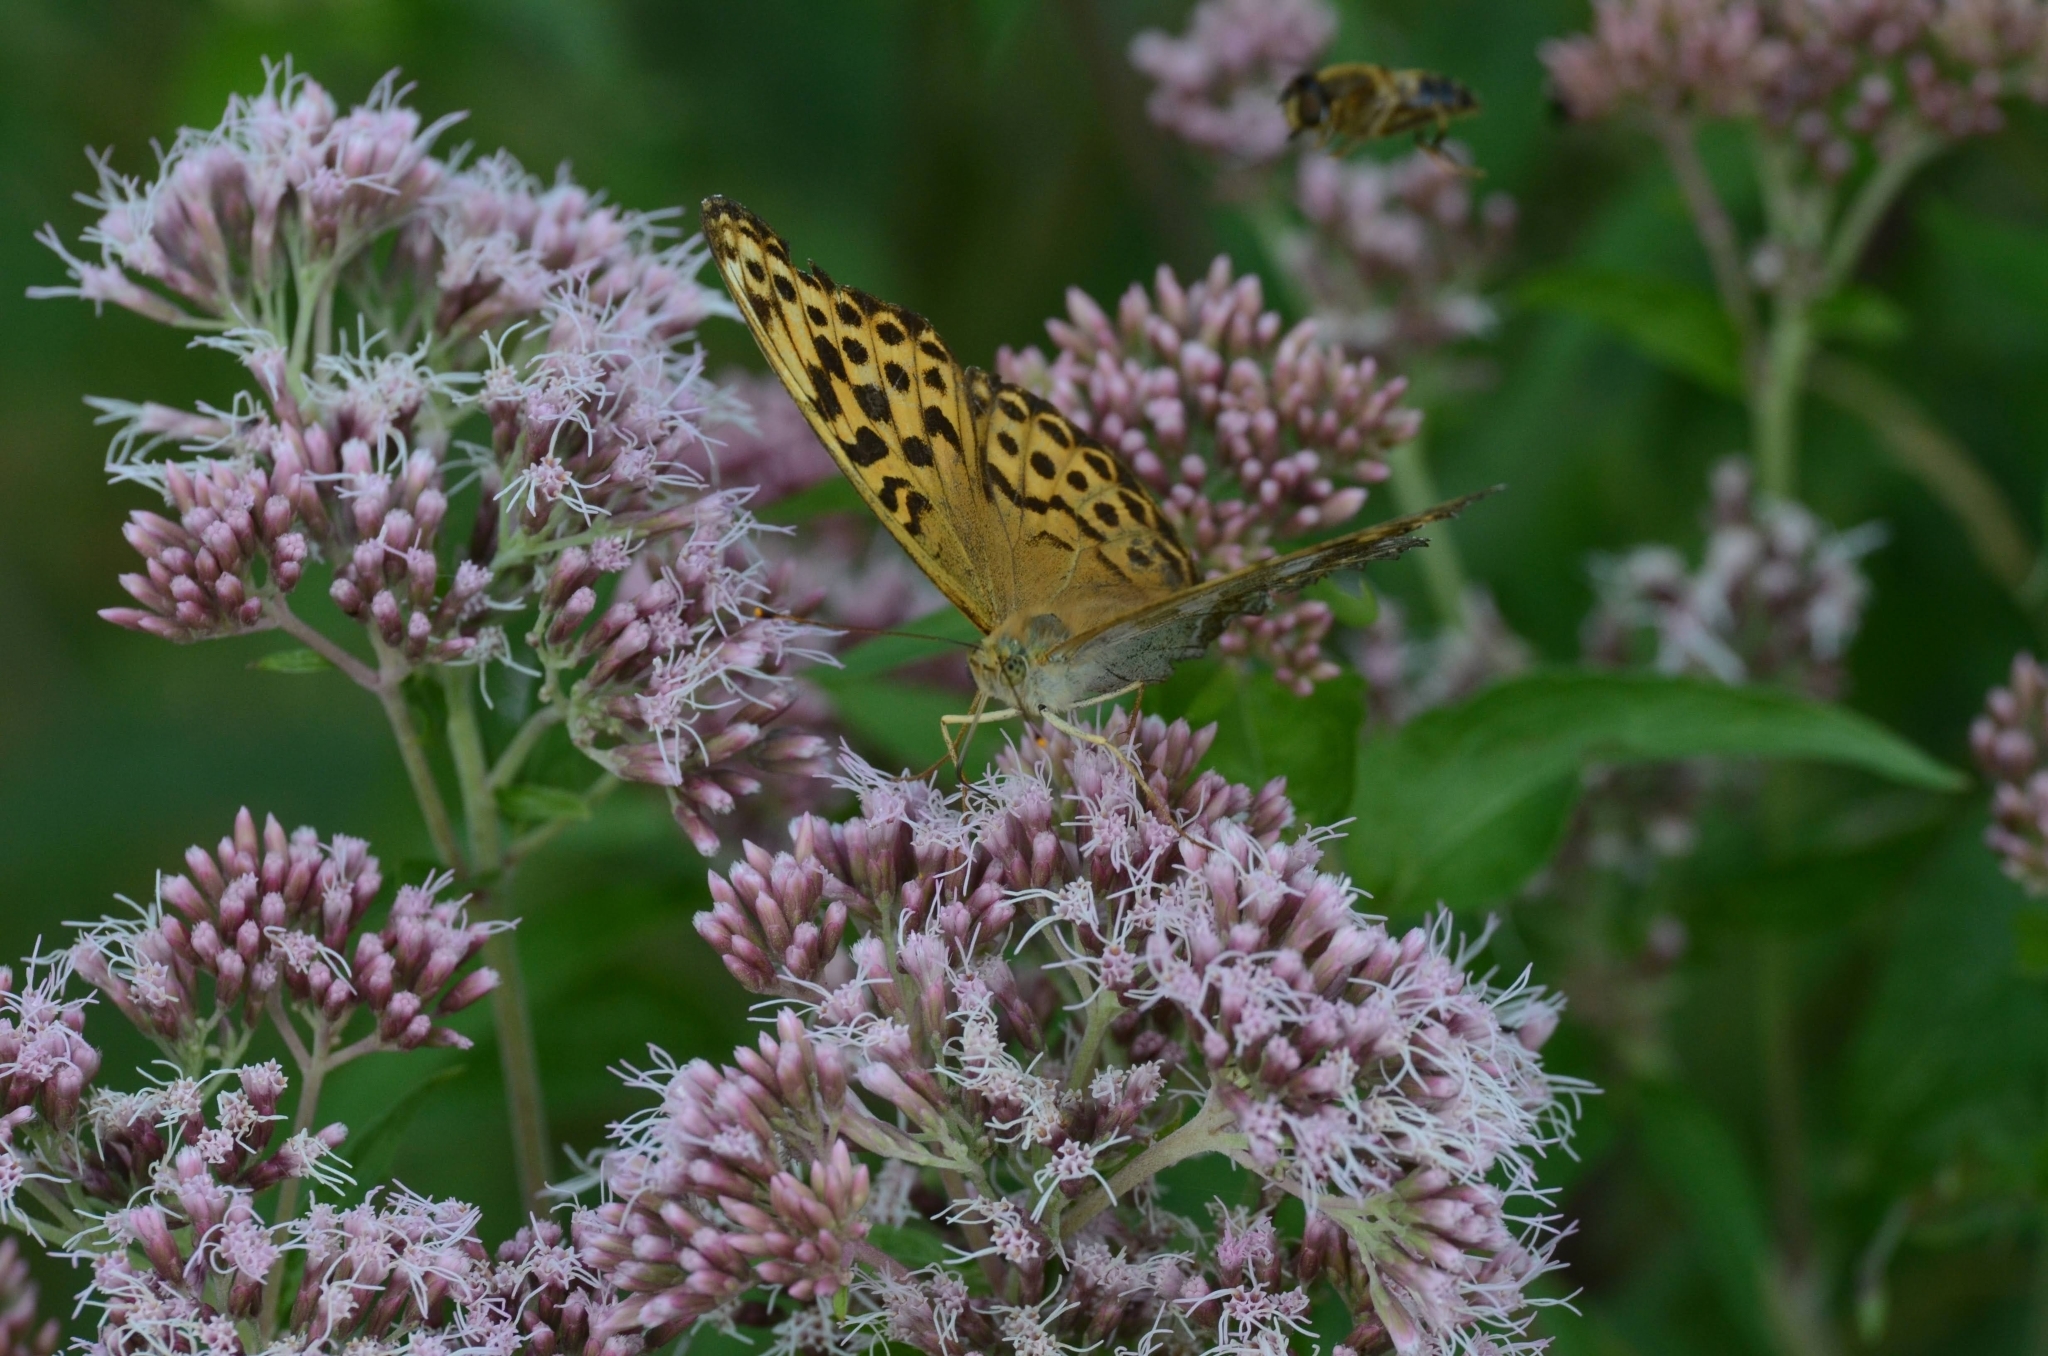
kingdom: Animalia
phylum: Arthropoda
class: Insecta
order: Lepidoptera
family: Nymphalidae
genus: Argynnis
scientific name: Argynnis paphia
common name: Silver-washed fritillary
